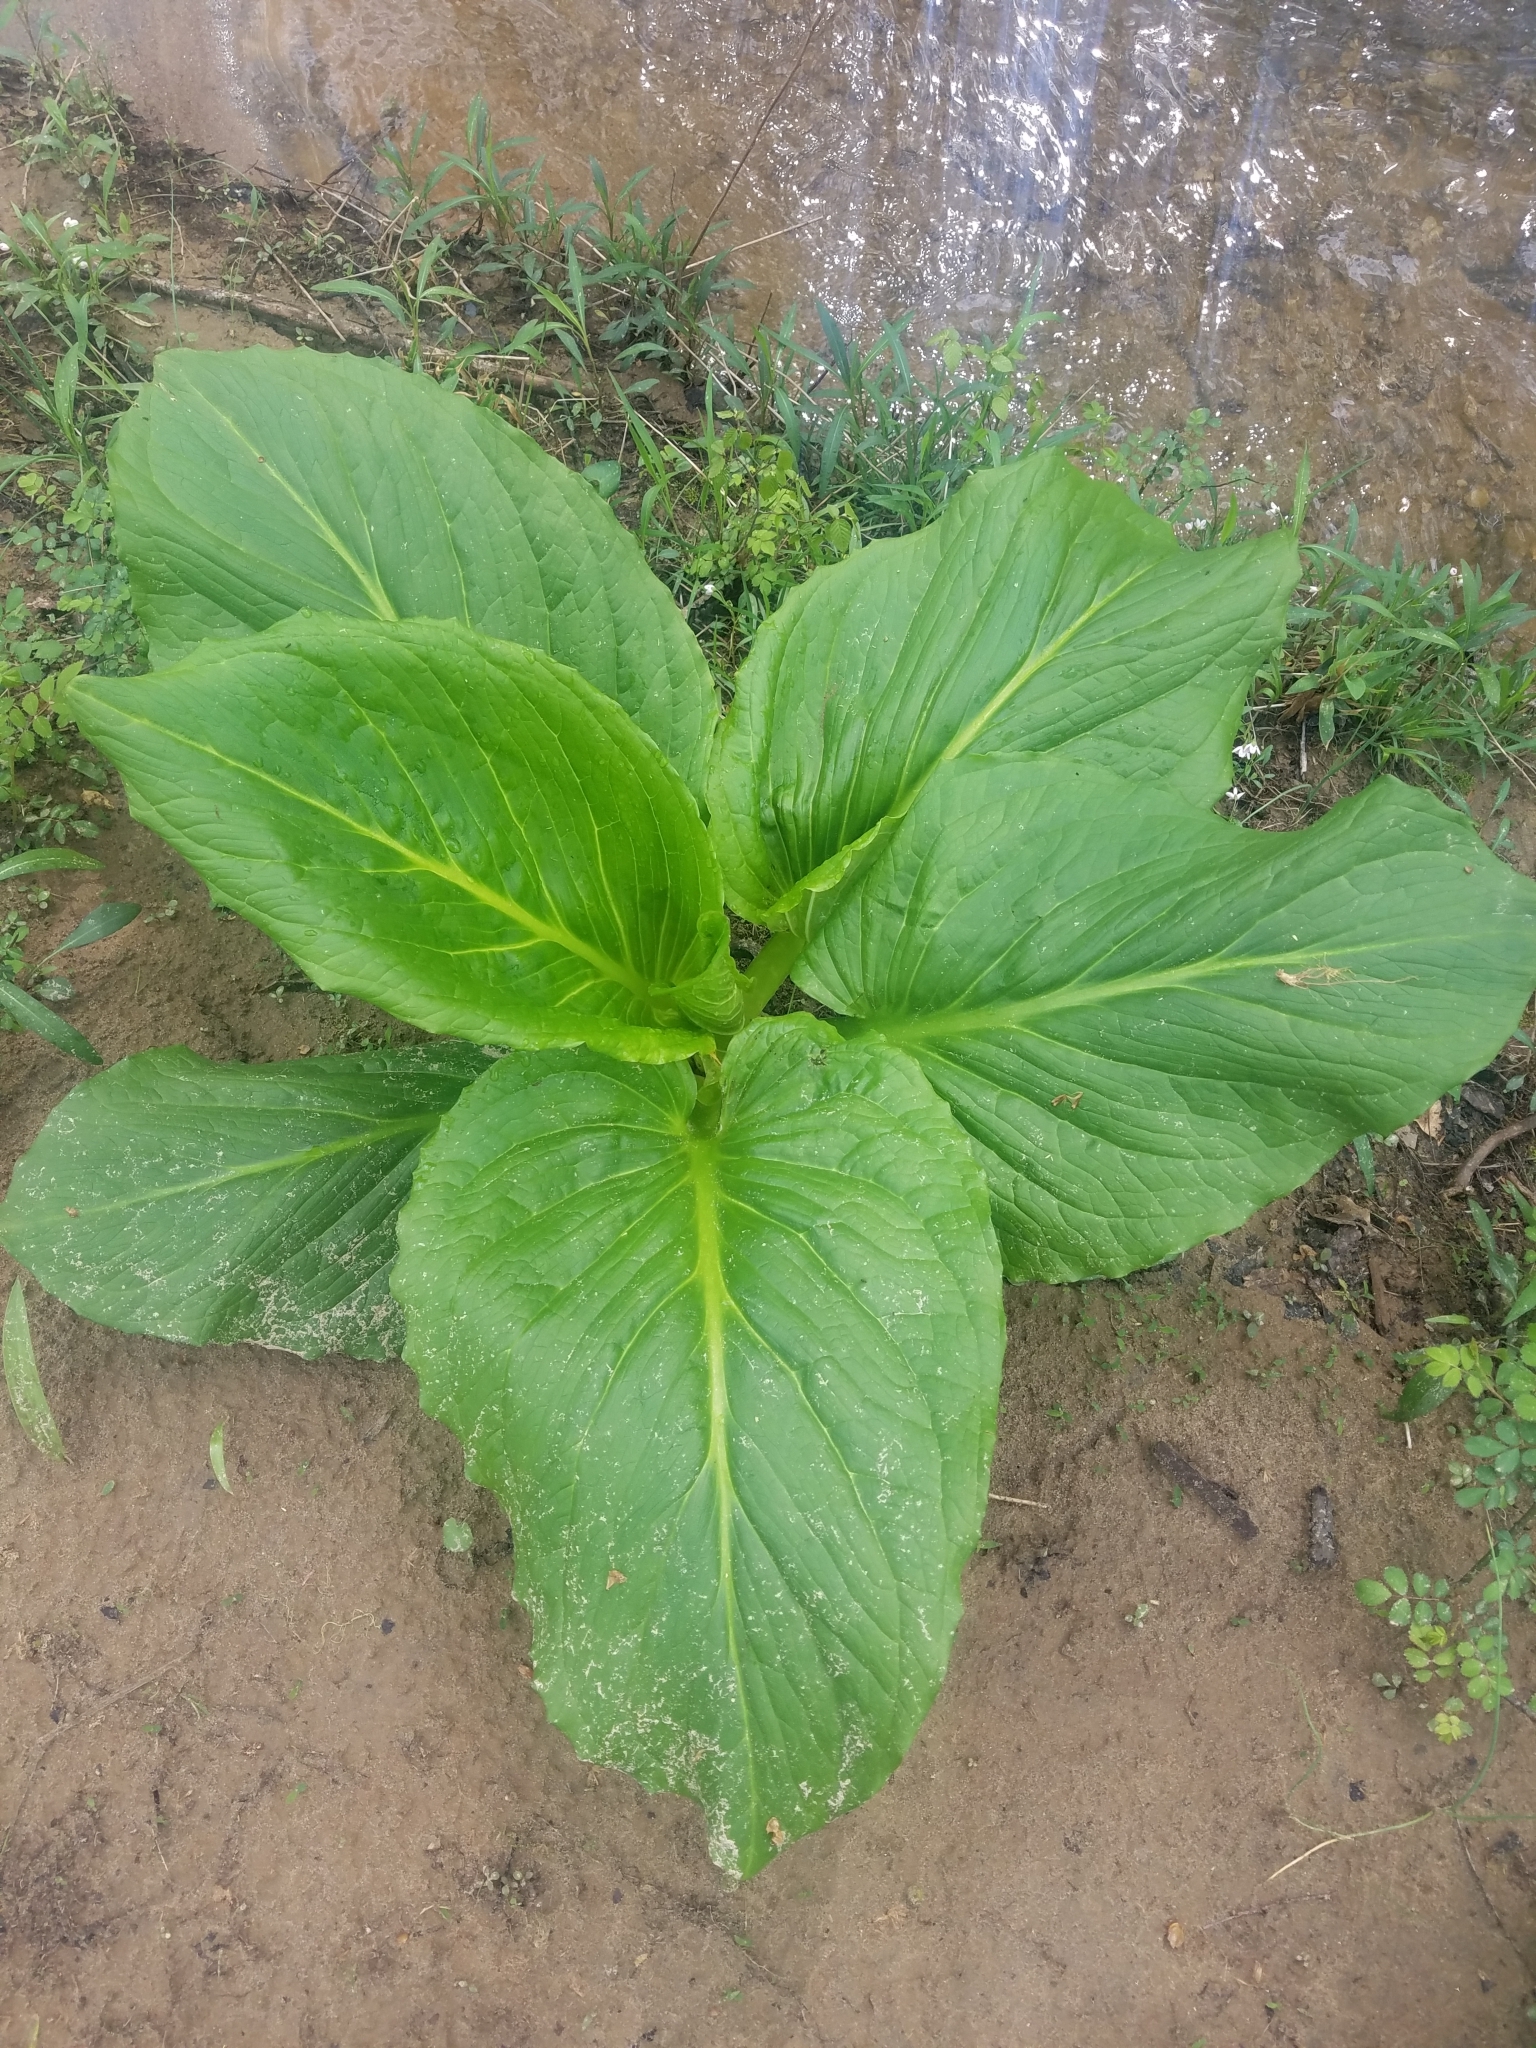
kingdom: Plantae
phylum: Tracheophyta
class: Liliopsida
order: Alismatales
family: Araceae
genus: Symplocarpus
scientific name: Symplocarpus foetidus
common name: Eastern skunk cabbage
